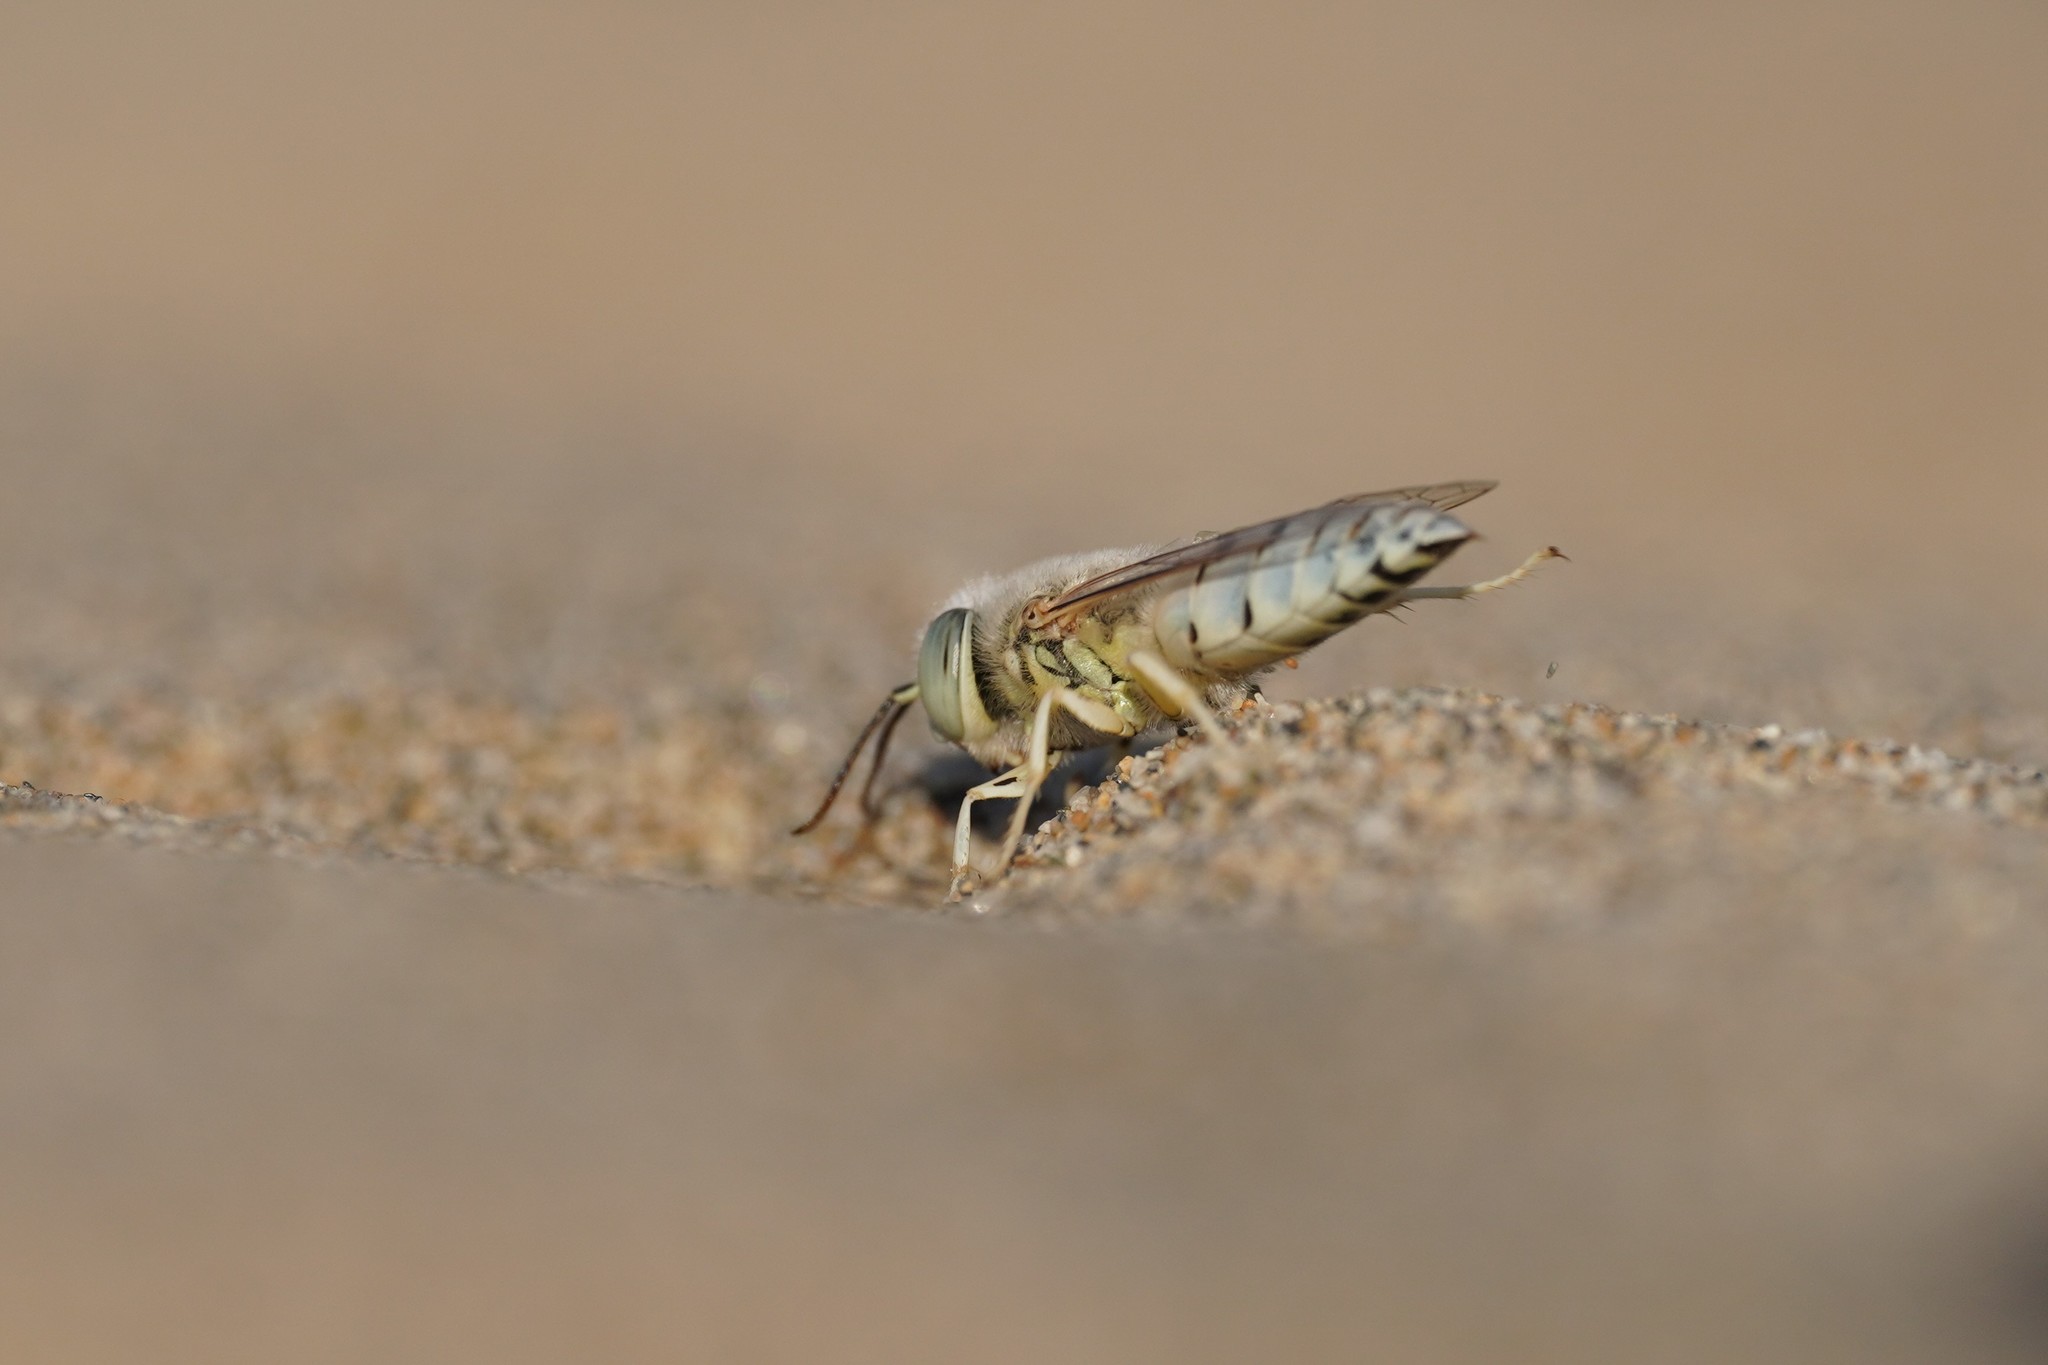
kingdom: Animalia
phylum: Arthropoda
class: Insecta
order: Hymenoptera
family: Crabronidae
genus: Bembix
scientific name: Bembix olivacea
